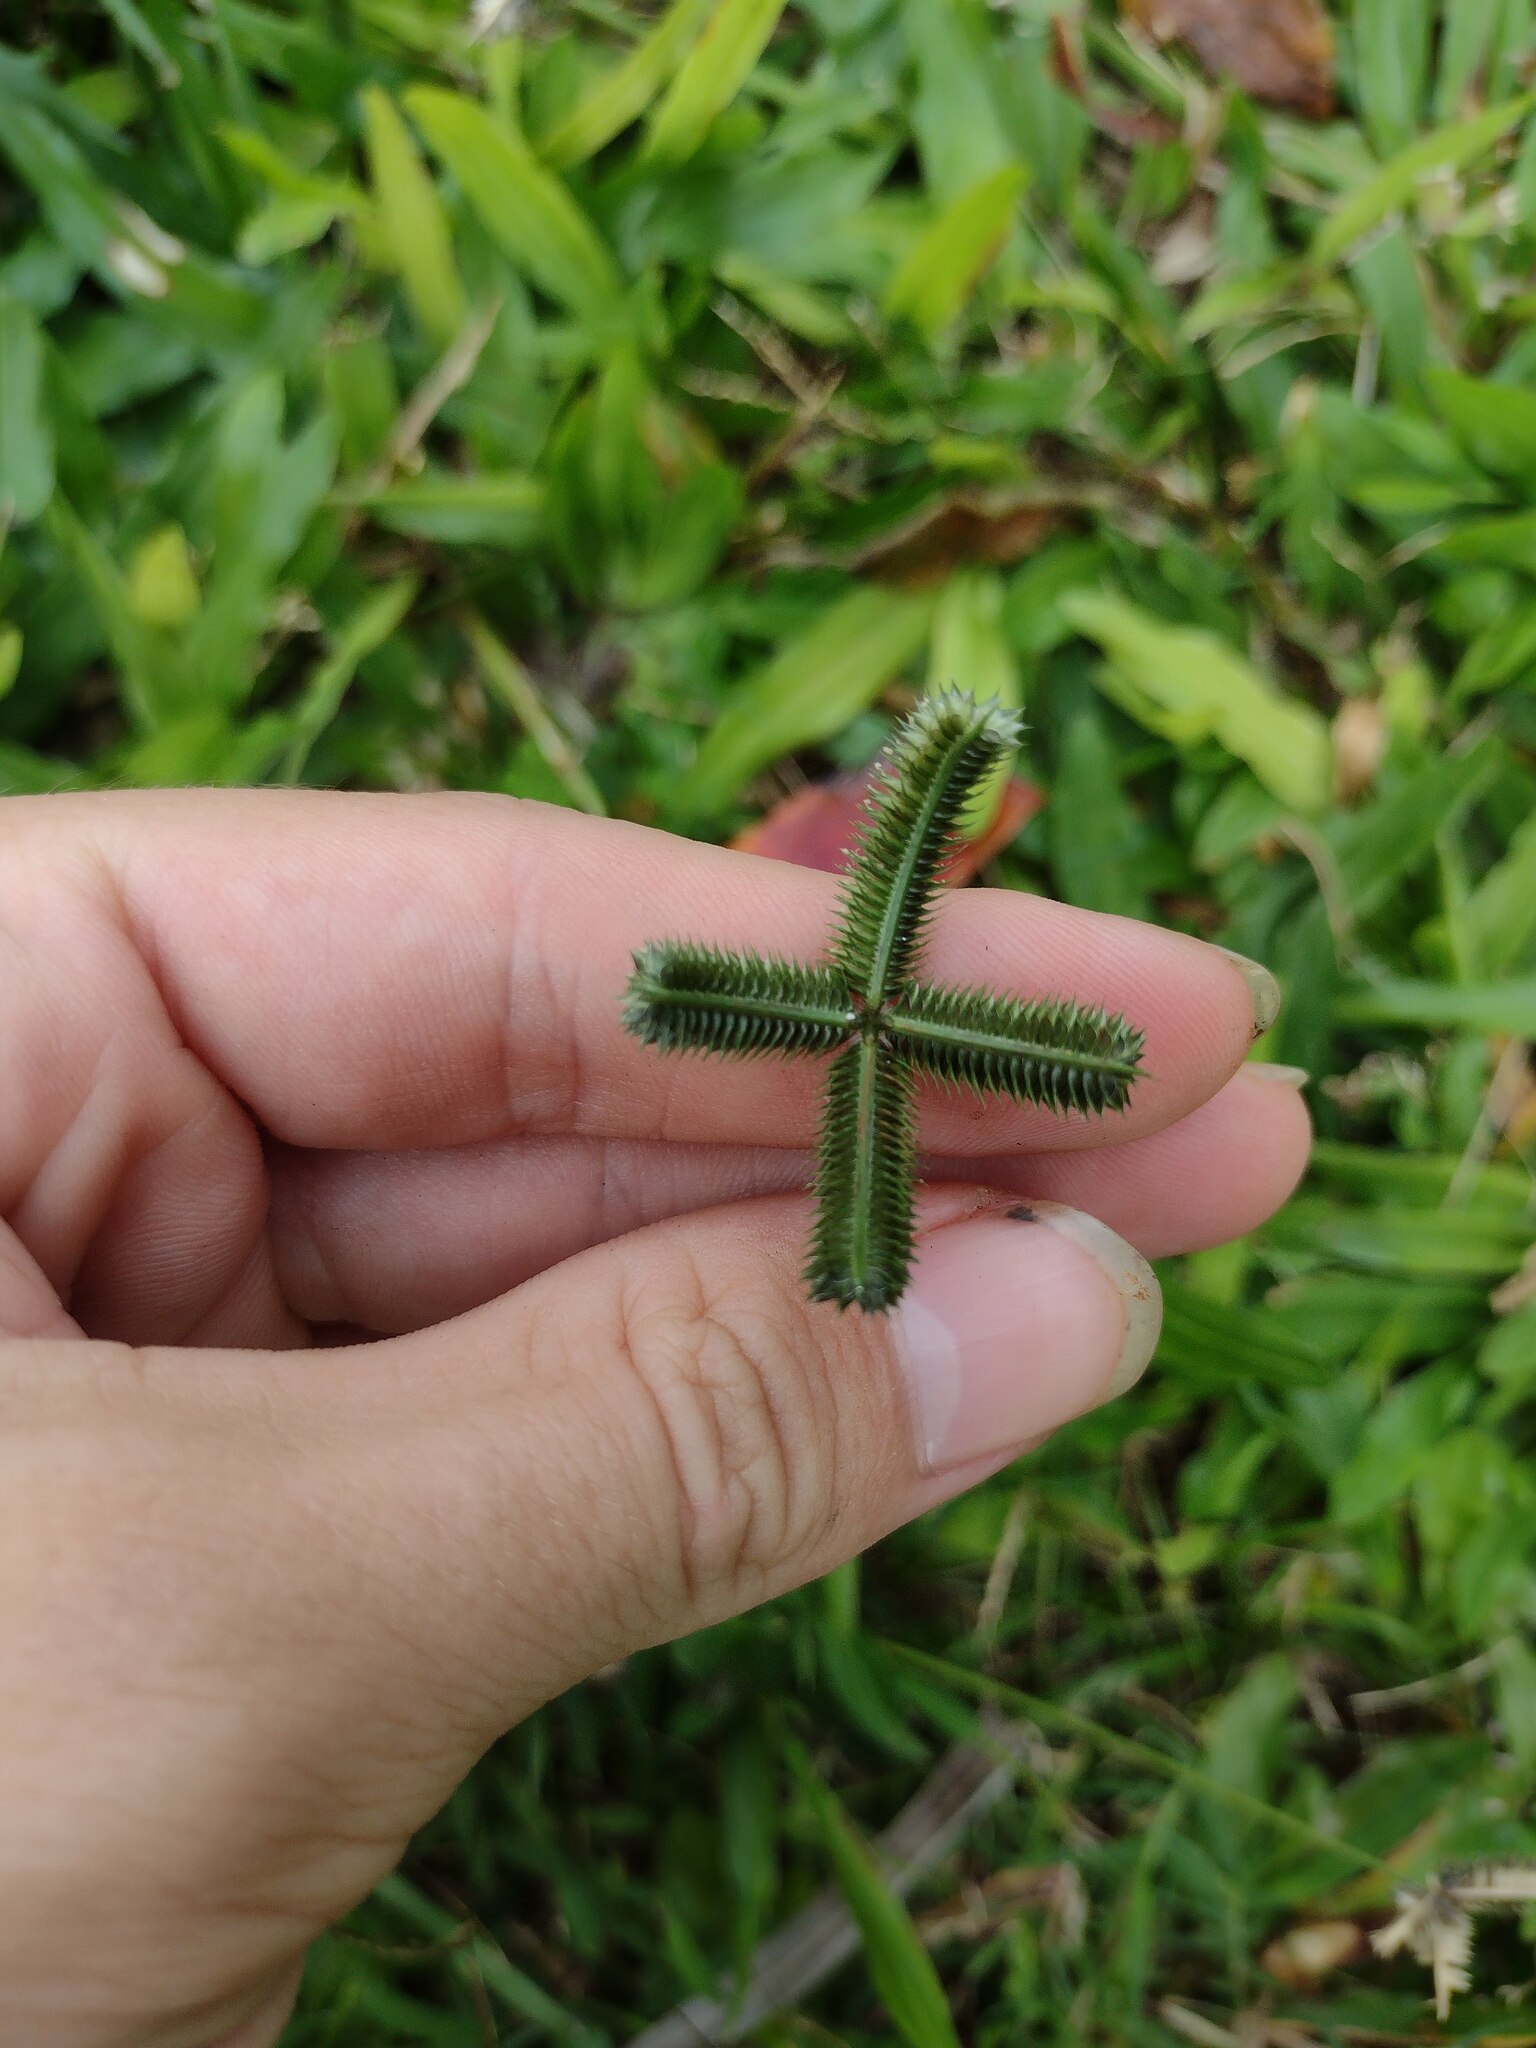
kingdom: Plantae
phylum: Tracheophyta
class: Liliopsida
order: Poales
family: Poaceae
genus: Dactyloctenium
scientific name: Dactyloctenium aegyptium
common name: Egyptian grass
